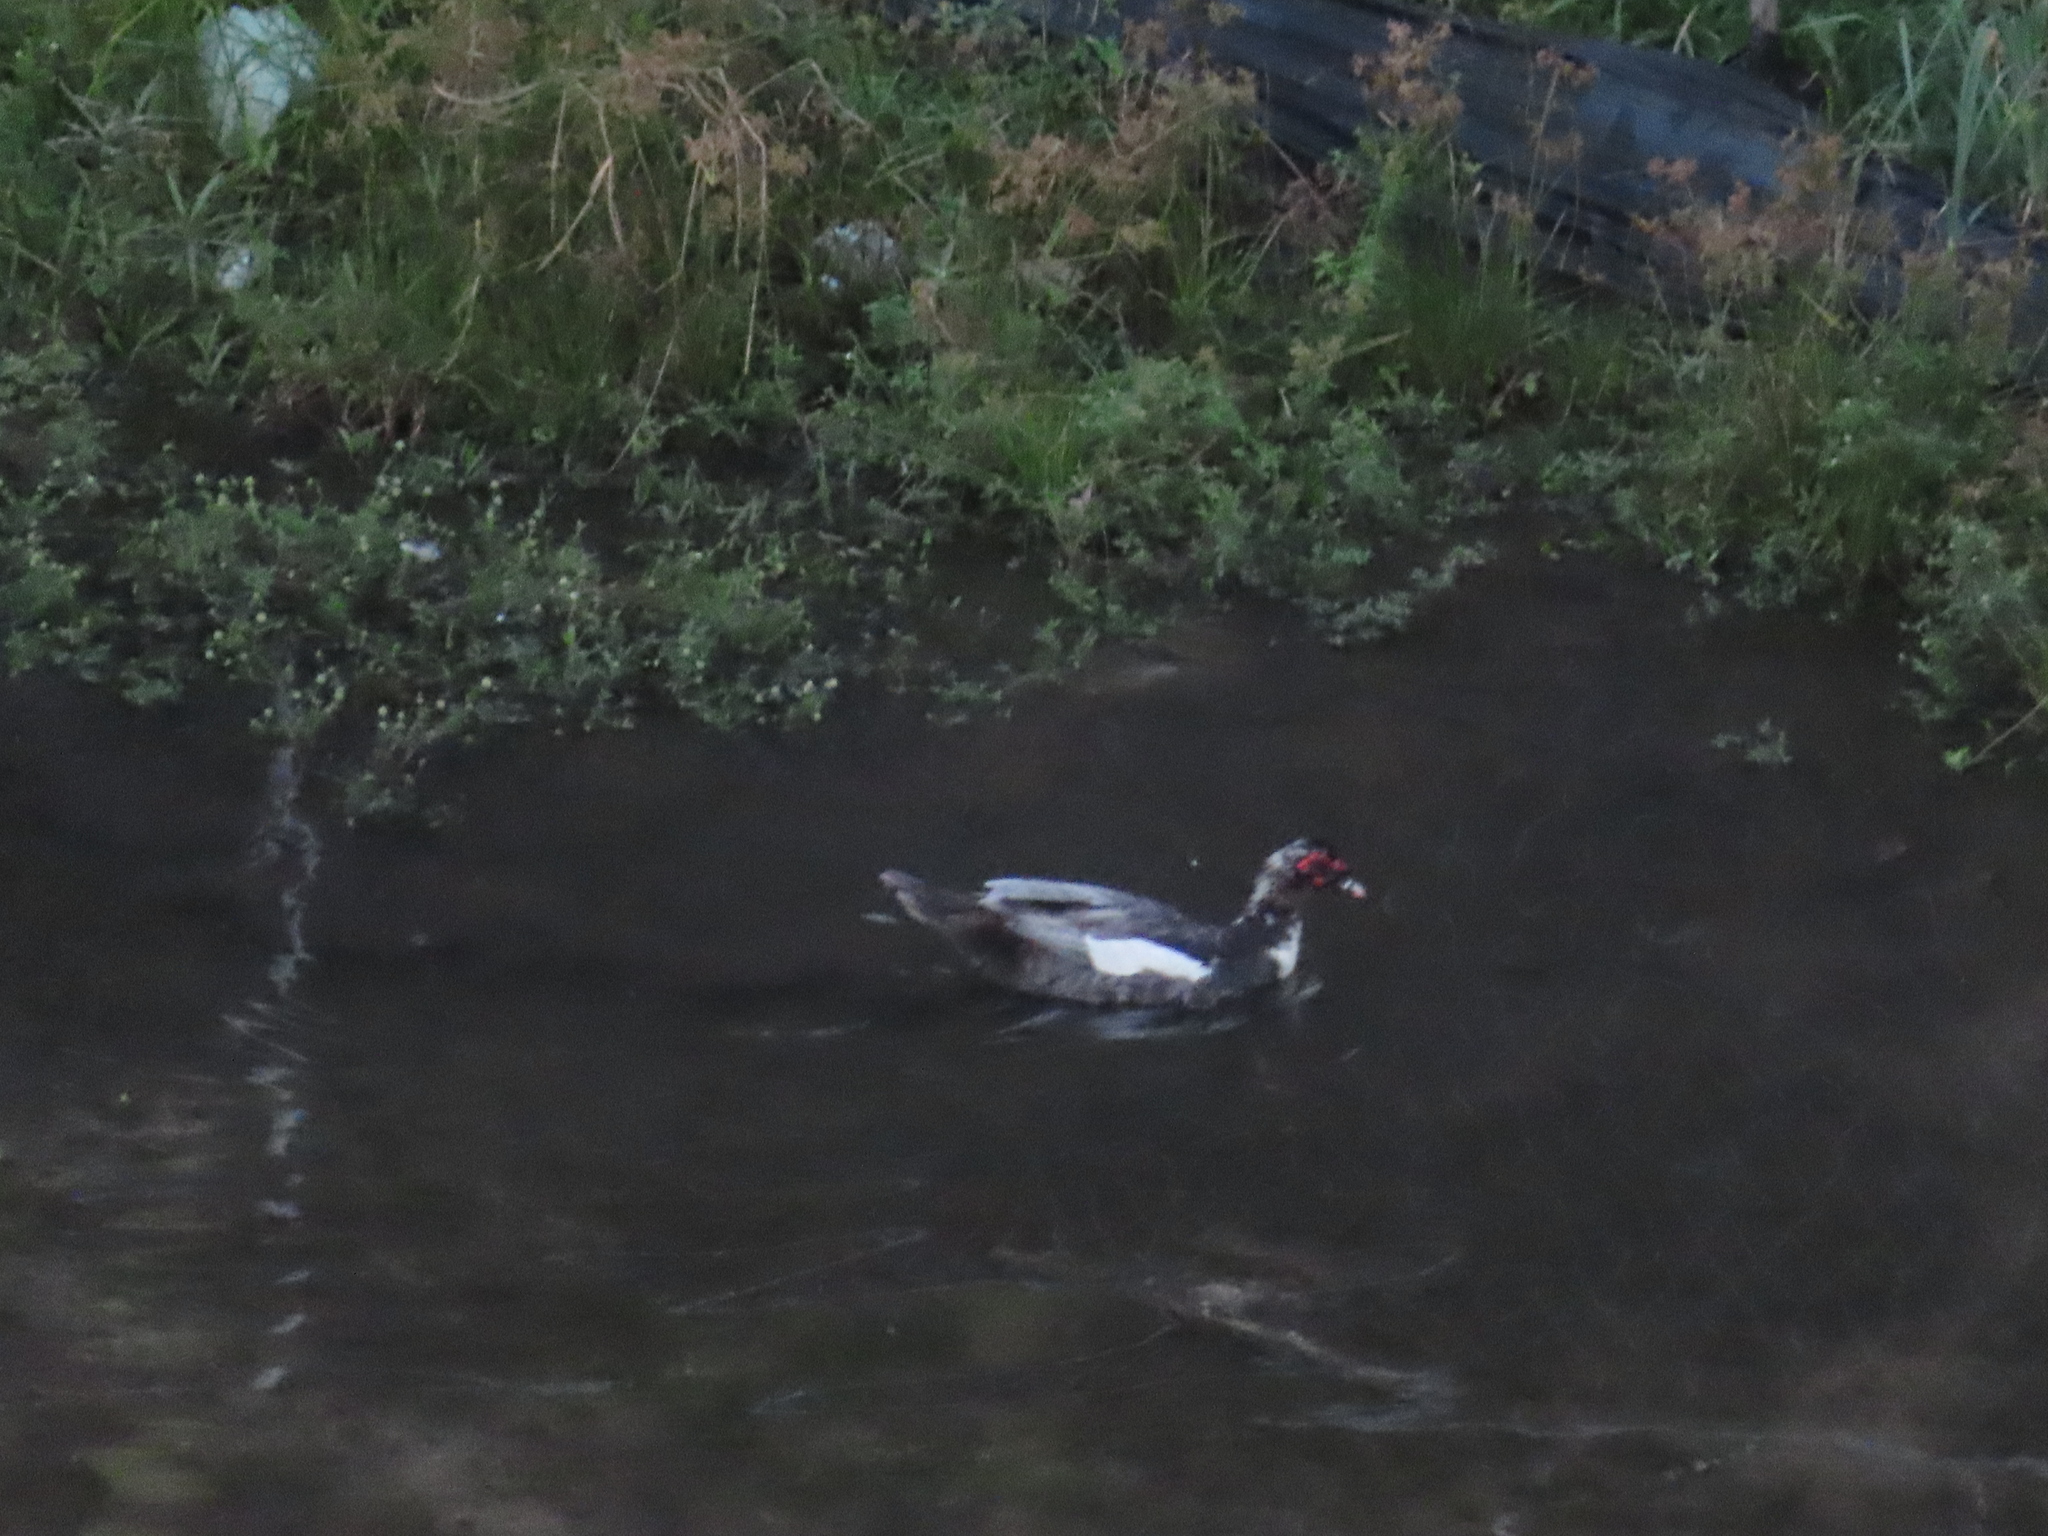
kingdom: Animalia
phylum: Chordata
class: Aves
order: Anseriformes
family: Anatidae
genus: Cairina
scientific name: Cairina moschata
